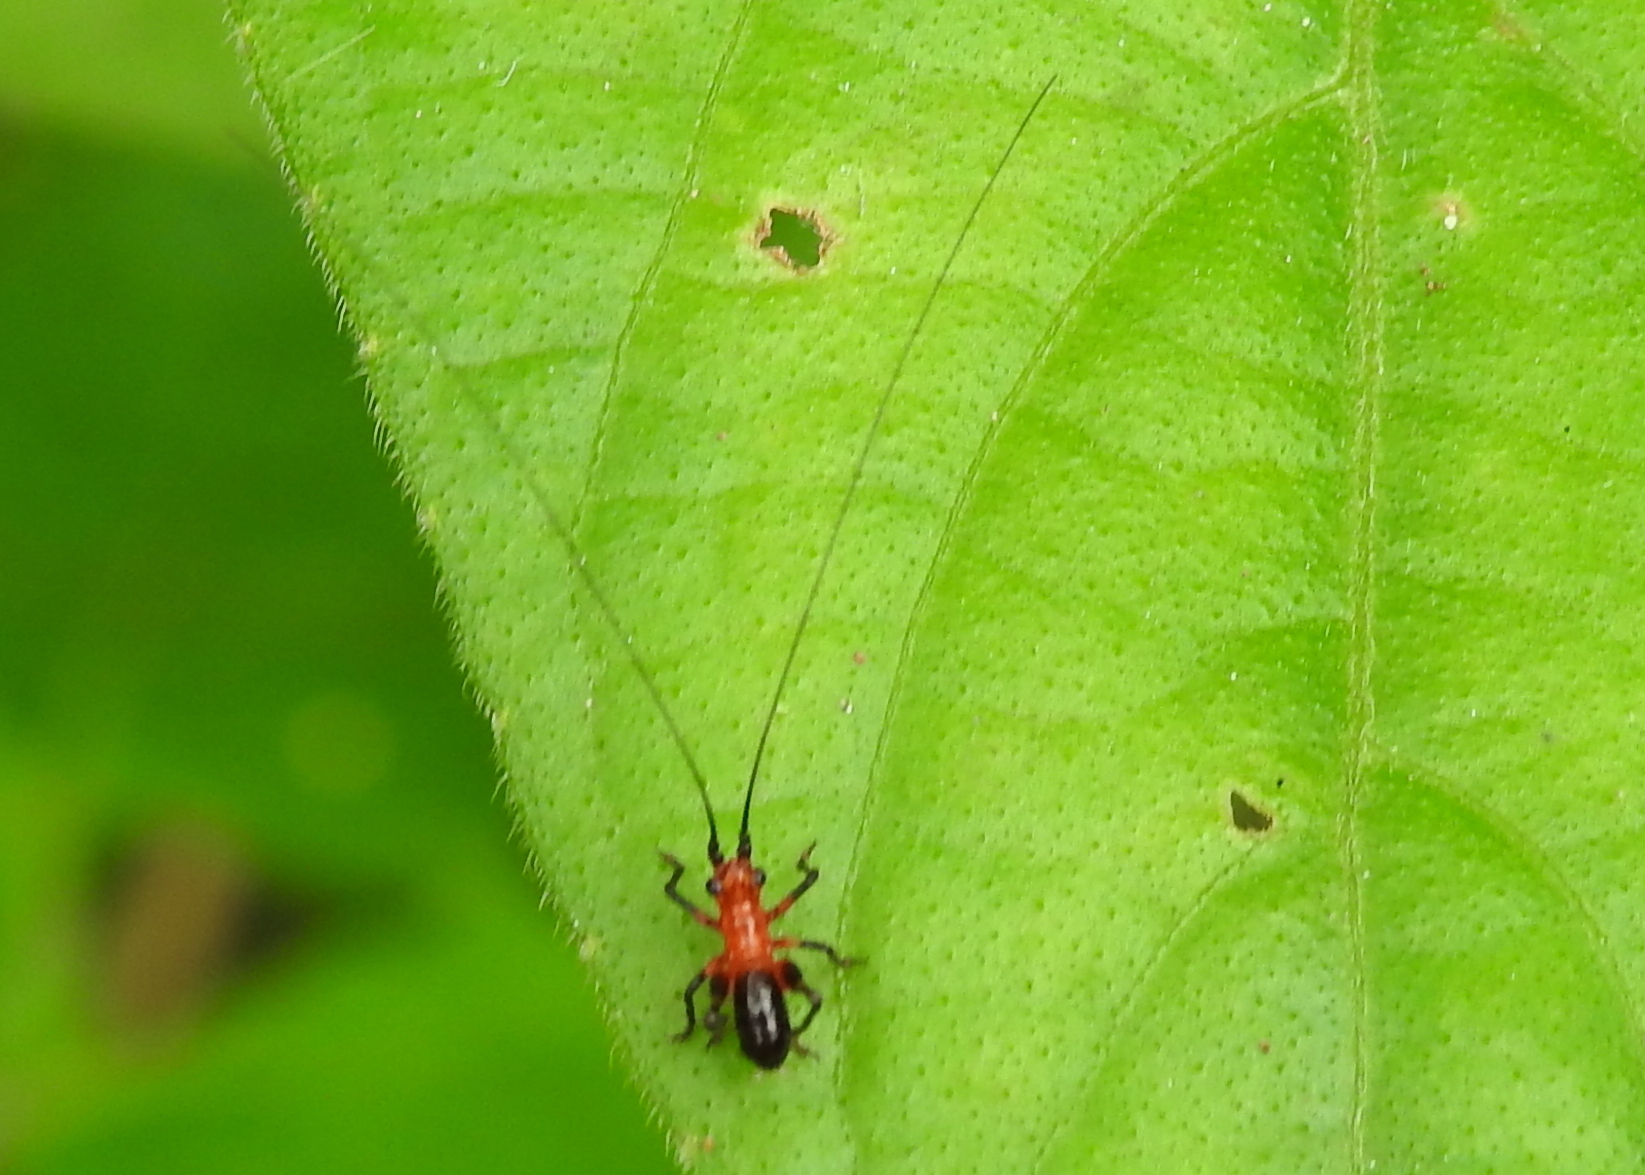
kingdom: Animalia
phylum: Arthropoda
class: Insecta
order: Orthoptera
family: Tettigoniidae
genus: Conocephalus
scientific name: Conocephalus melaenus
